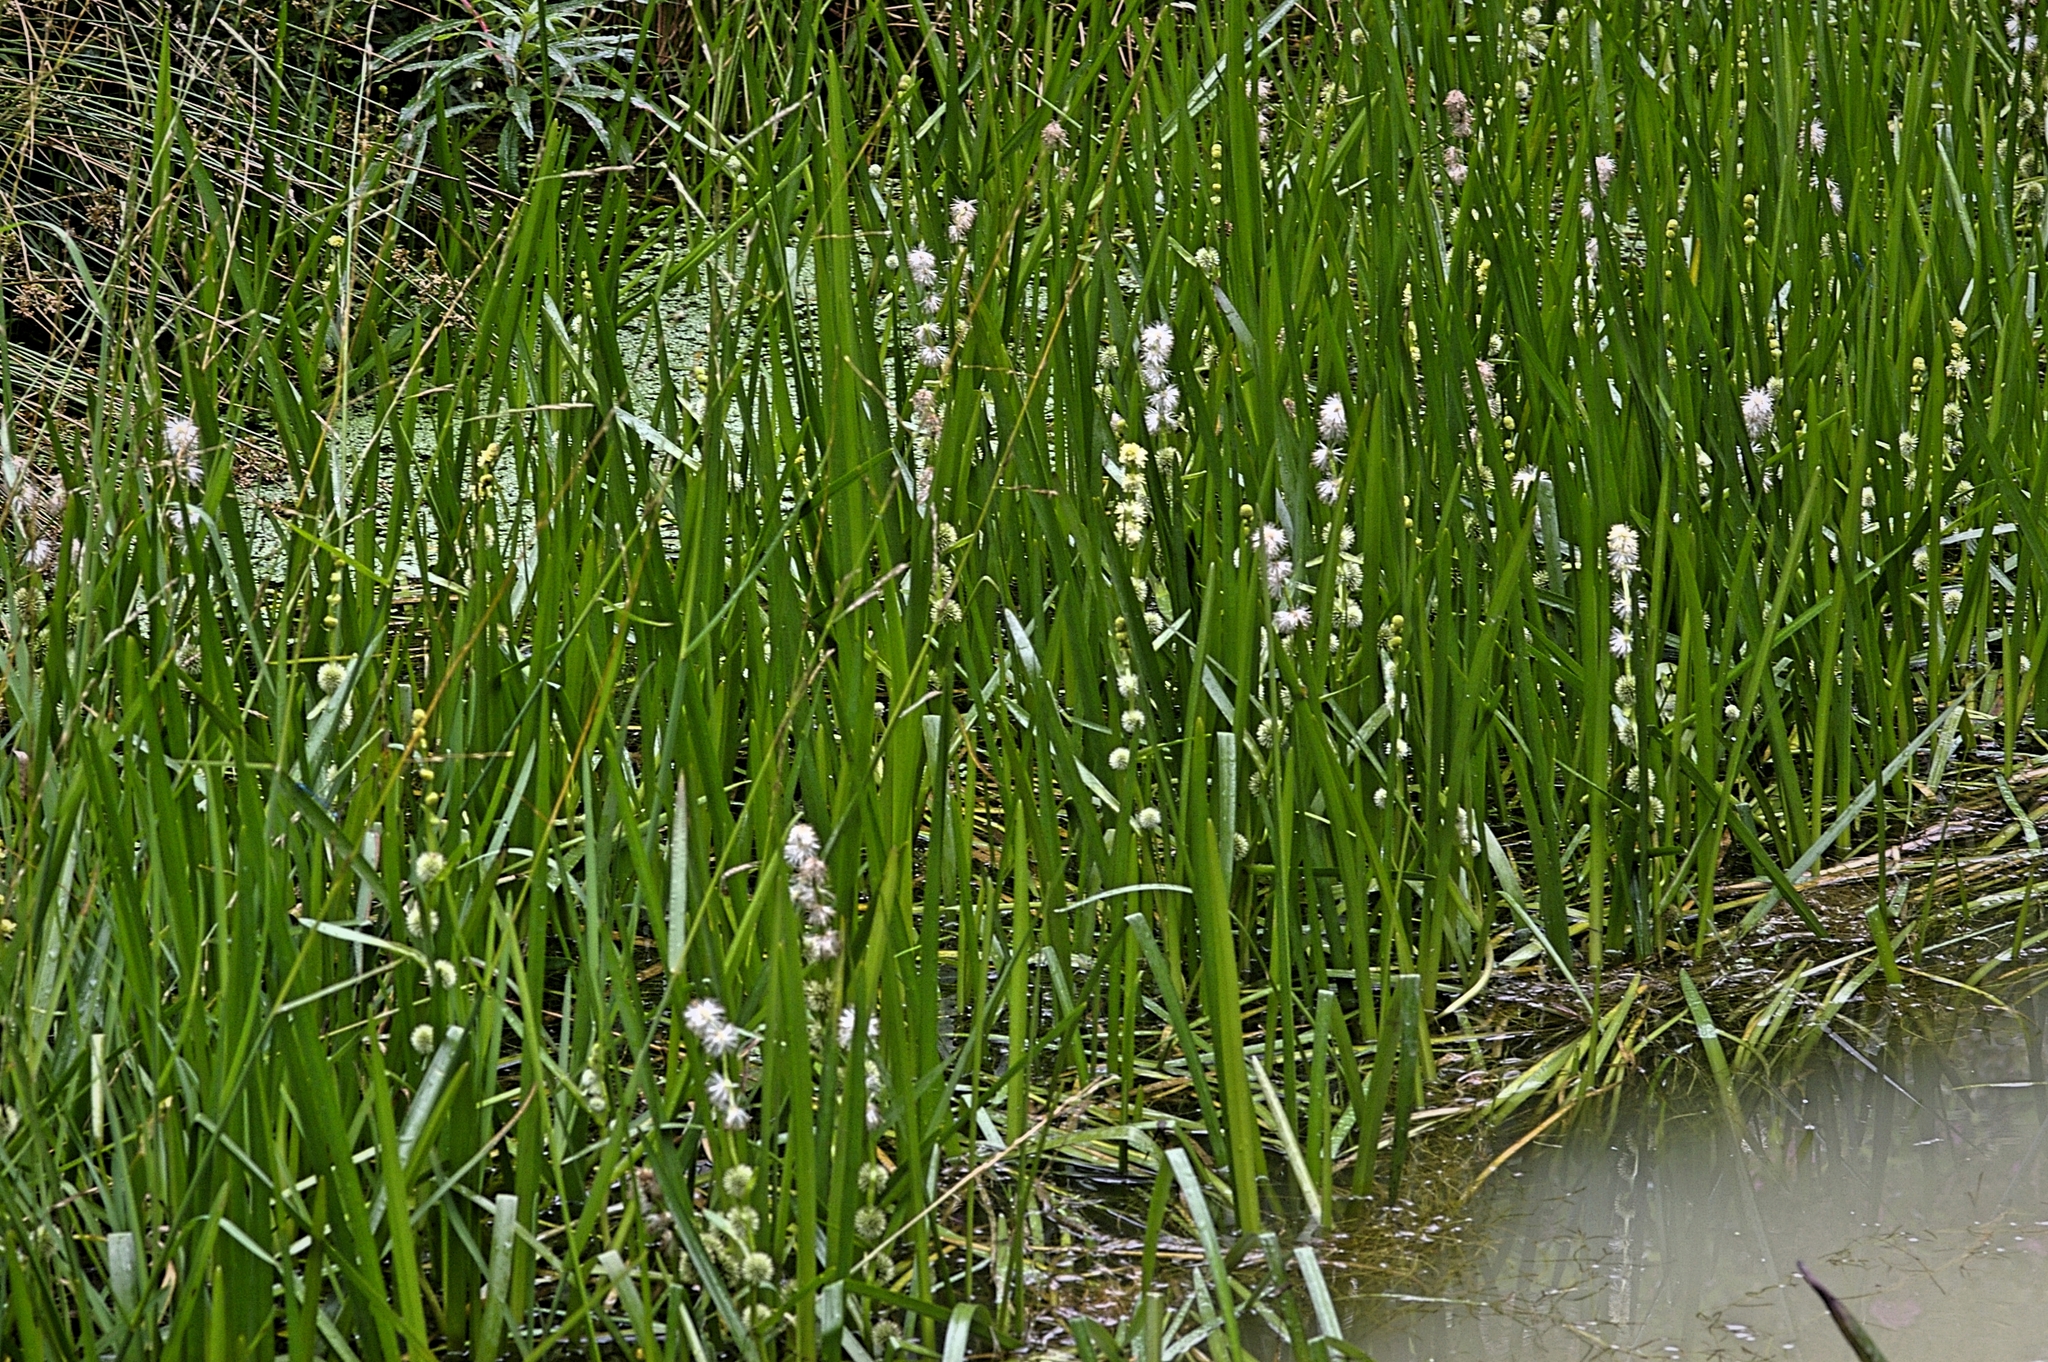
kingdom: Plantae
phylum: Tracheophyta
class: Liliopsida
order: Poales
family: Typhaceae
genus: Sparganium
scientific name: Sparganium emersum
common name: Unbranched bur-reed
